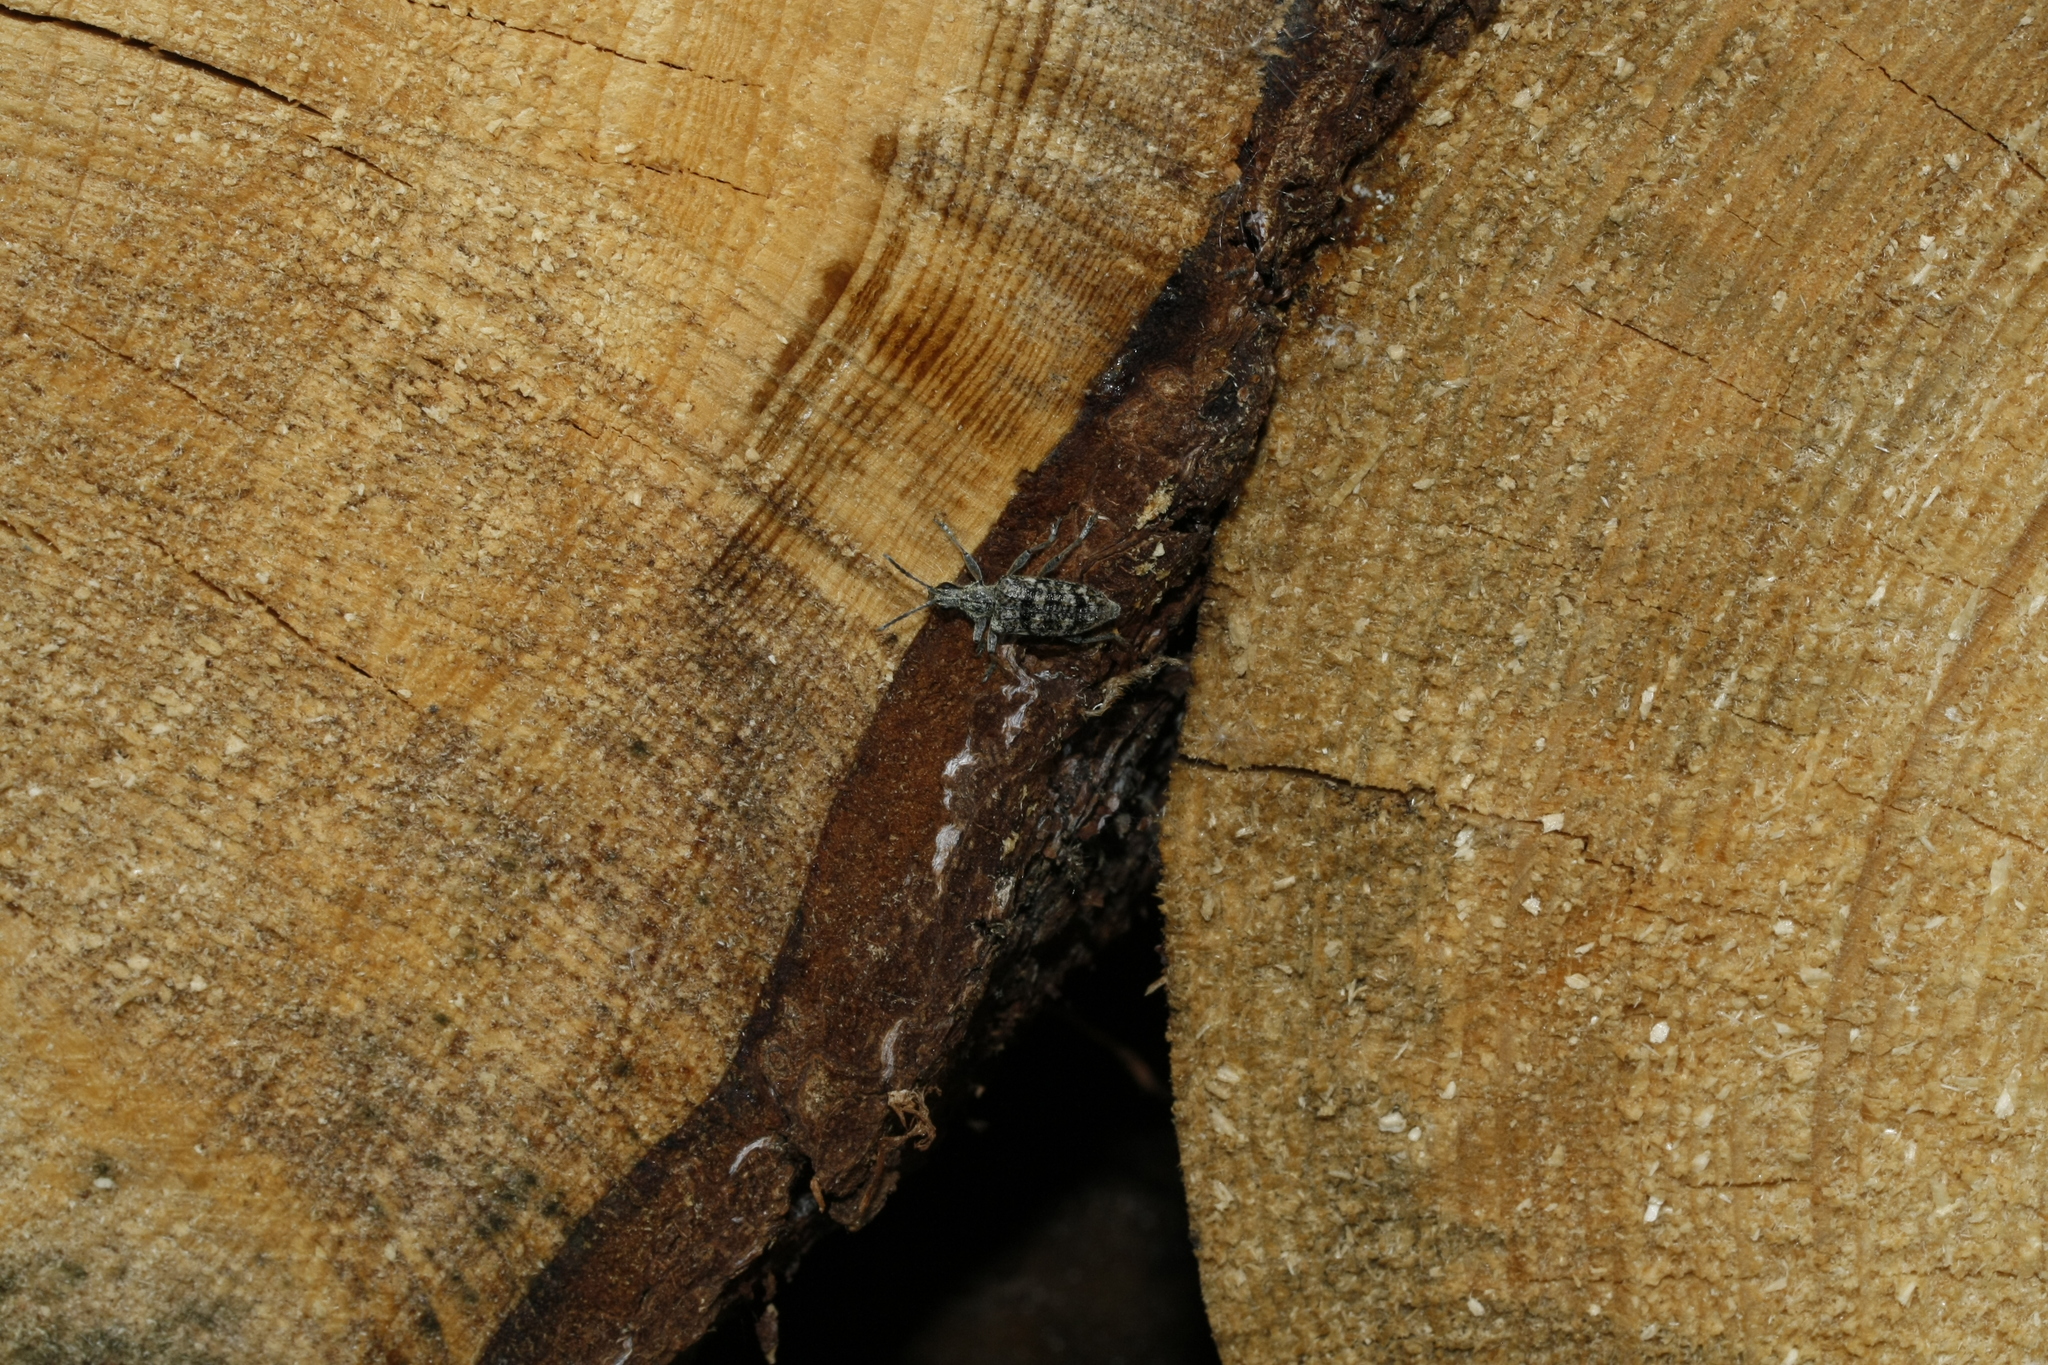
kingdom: Animalia
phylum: Arthropoda
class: Insecta
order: Coleoptera
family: Cerambycidae
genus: Rhagium
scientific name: Rhagium inquisitor
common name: Ribbed pine borer
